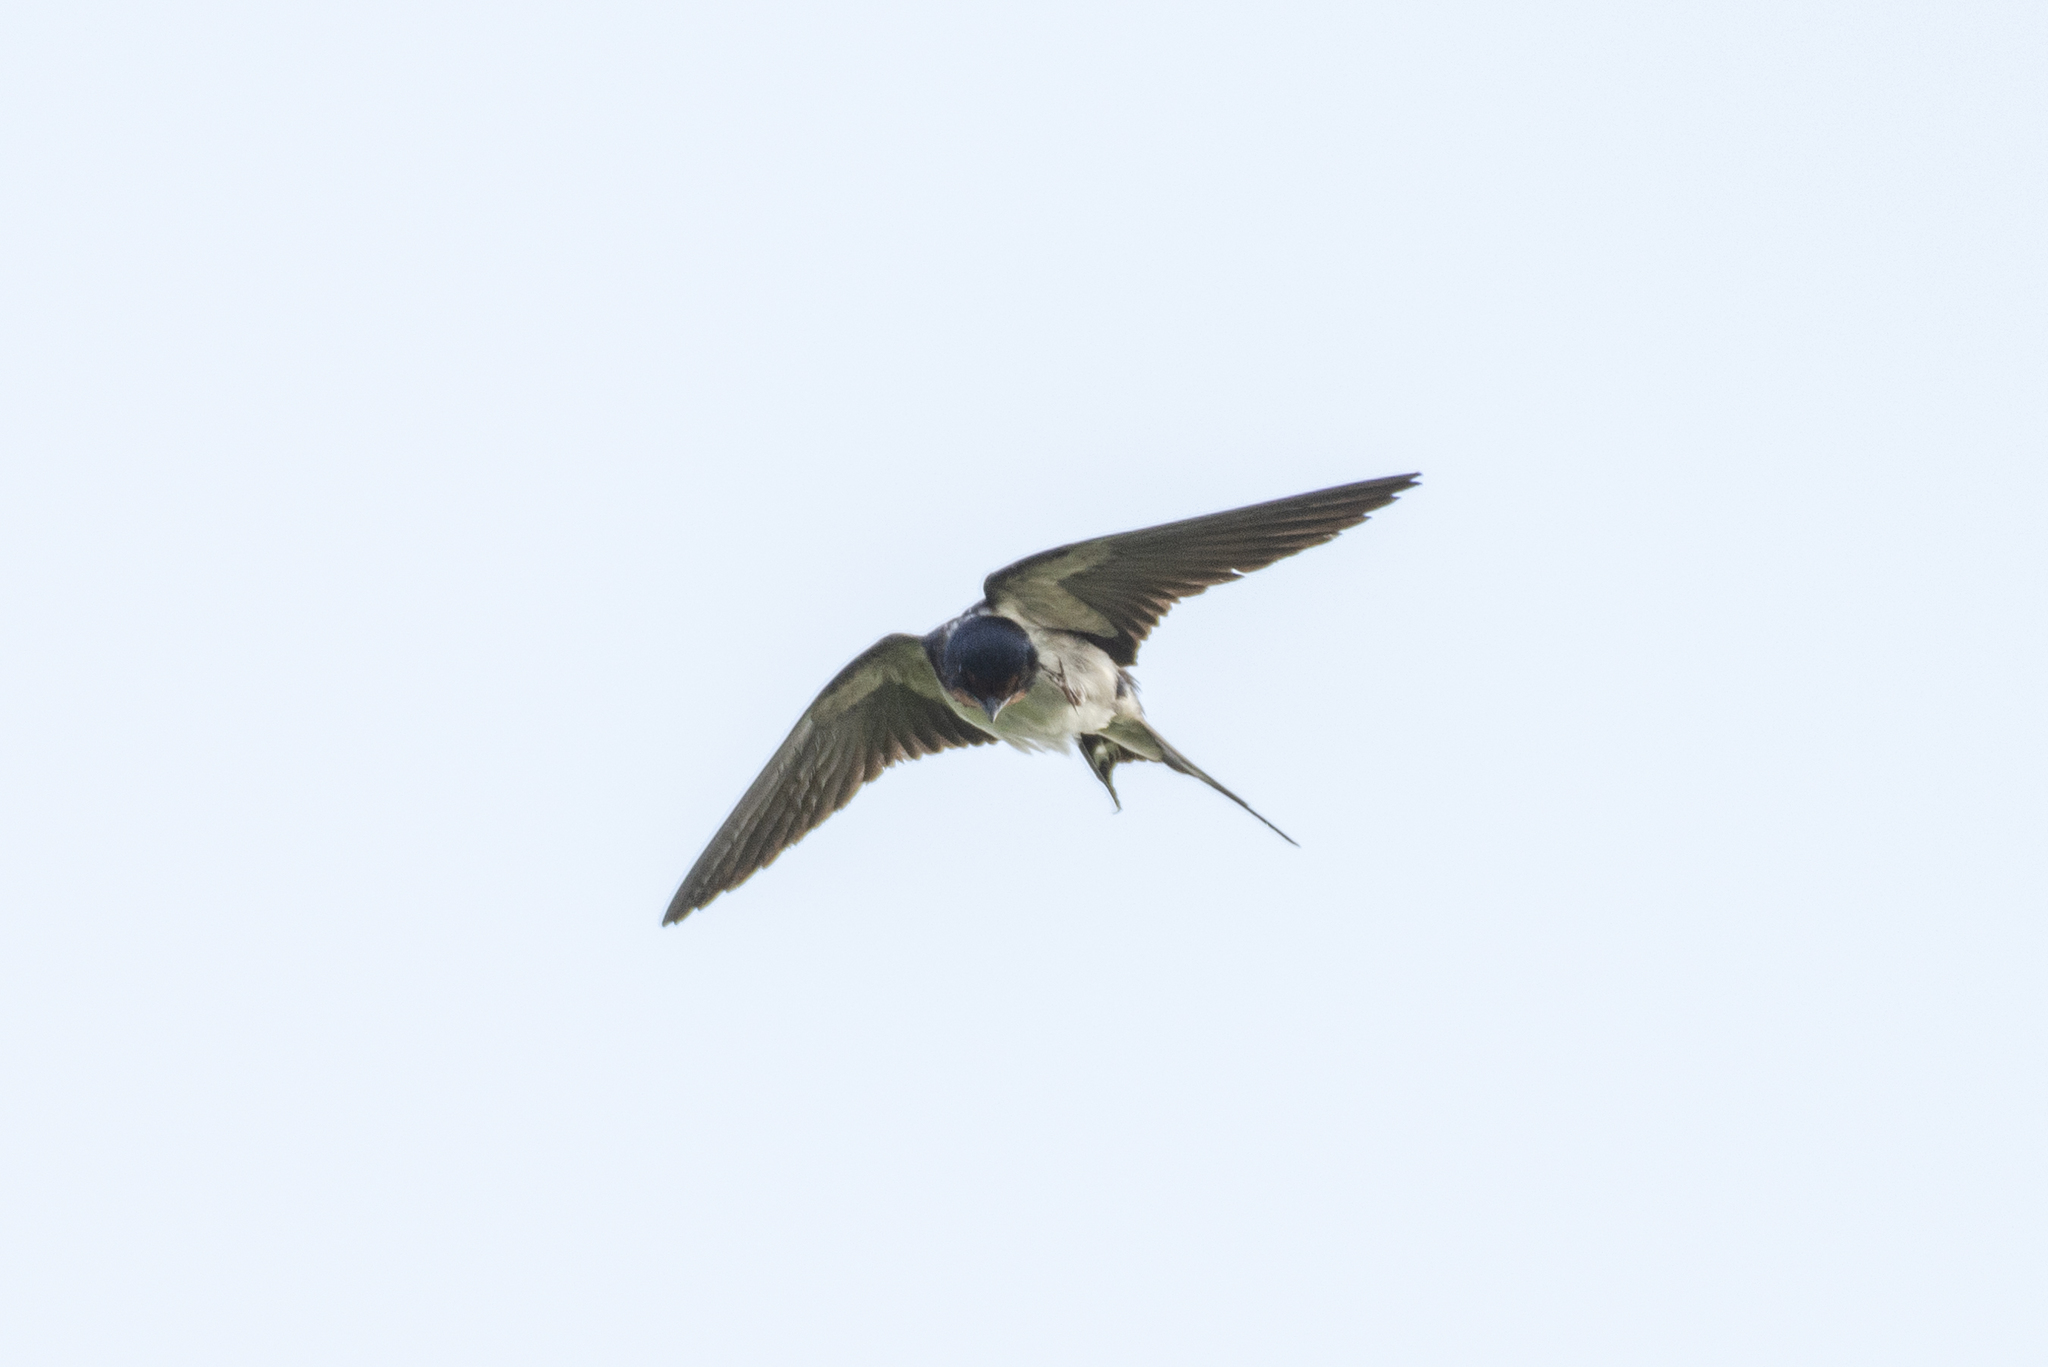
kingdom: Animalia
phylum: Chordata
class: Aves
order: Passeriformes
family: Hirundinidae
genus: Hirundo
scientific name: Hirundo rustica
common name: Barn swallow
